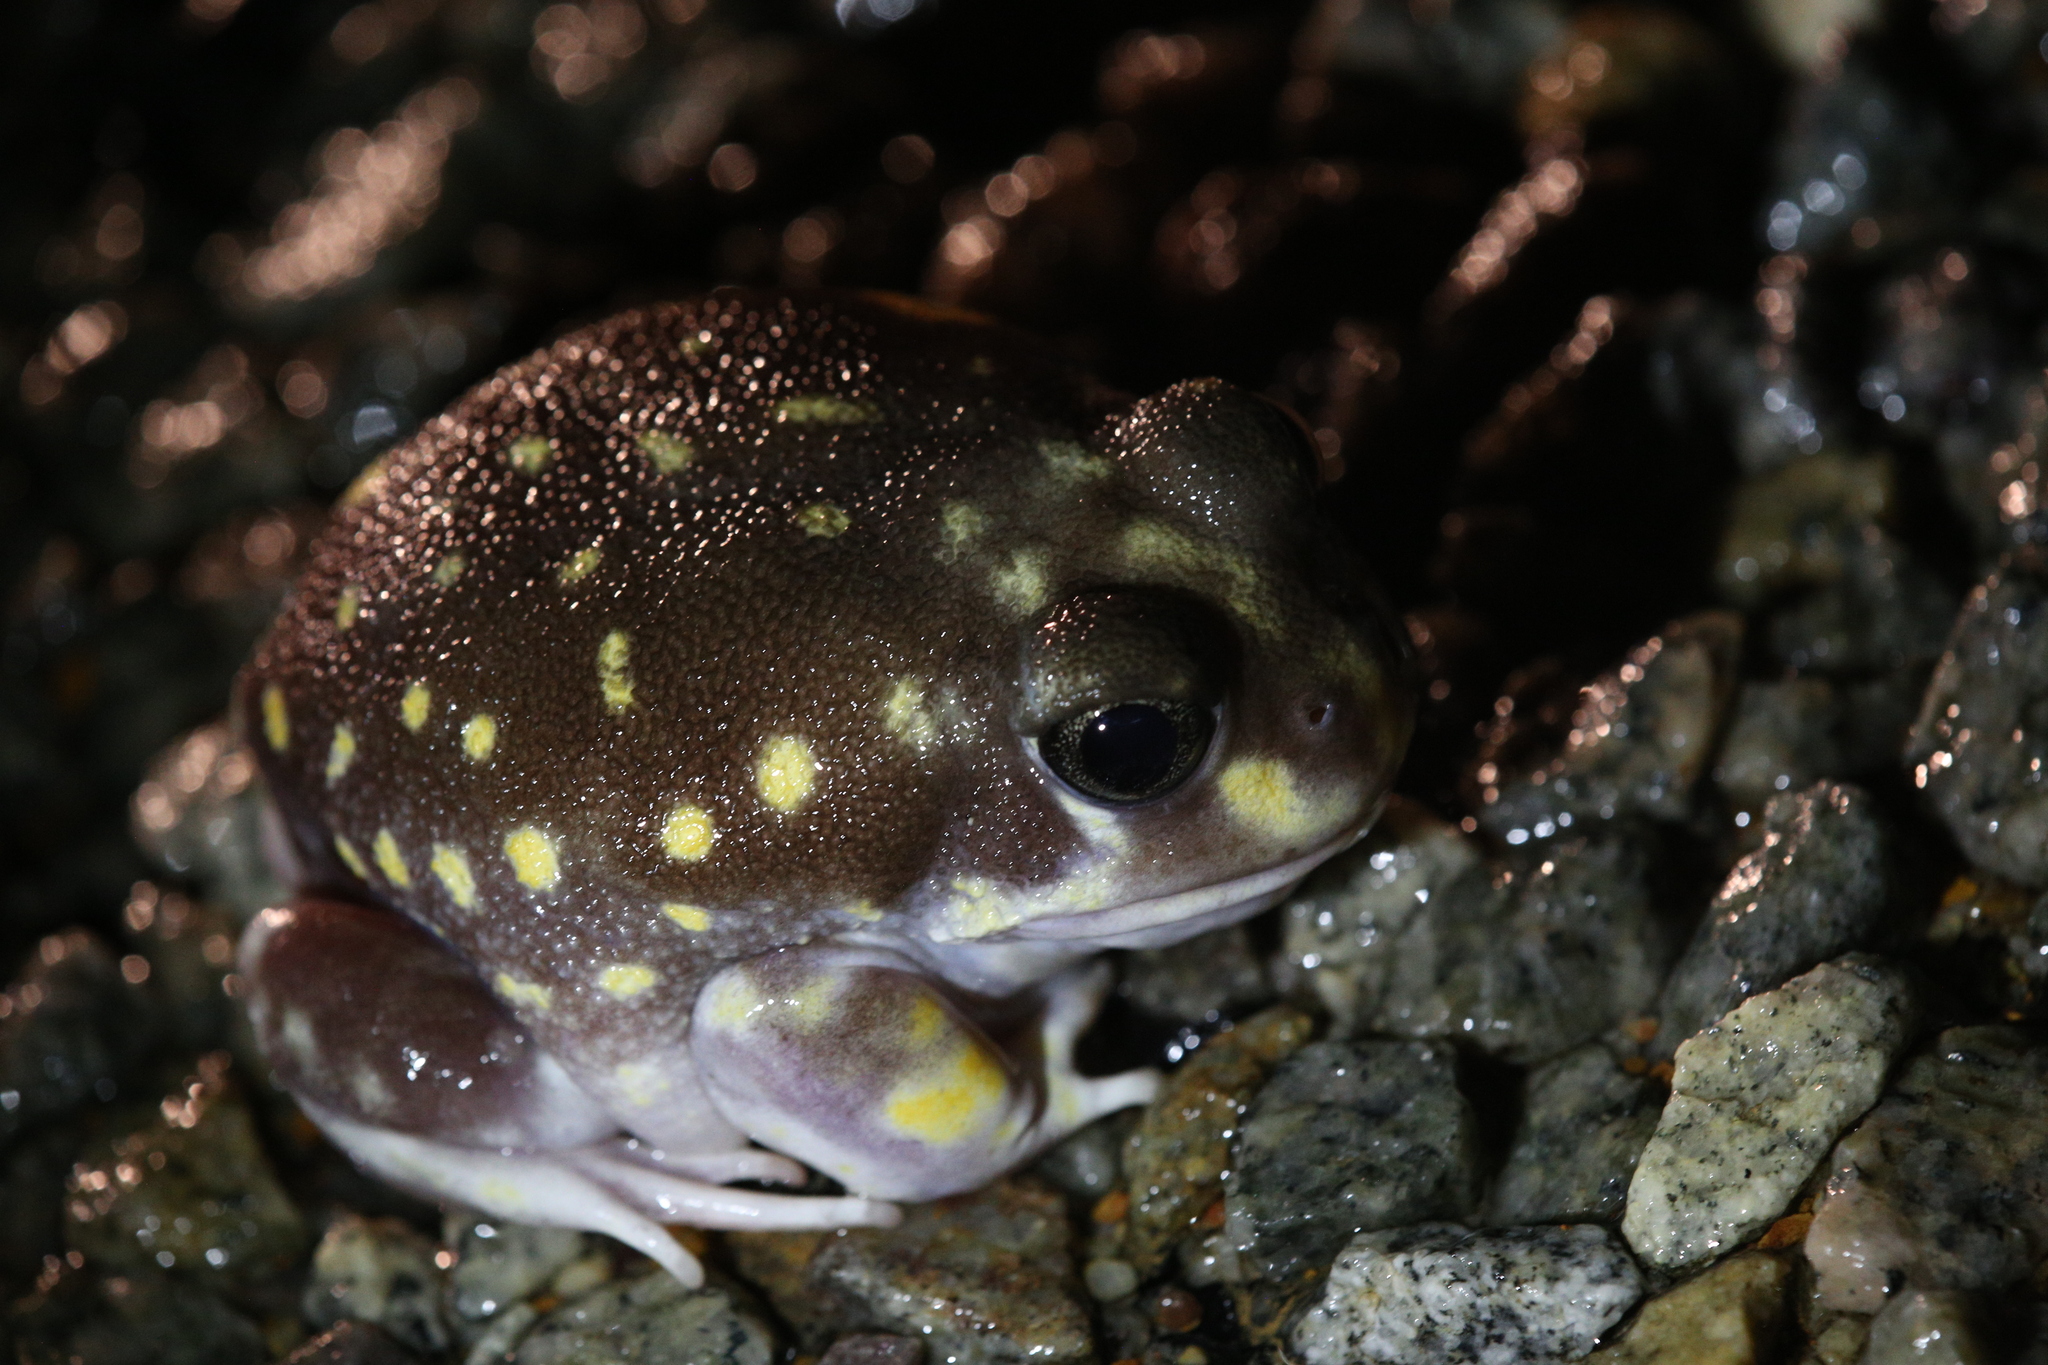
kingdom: Animalia
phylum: Chordata
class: Amphibia
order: Anura
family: Limnodynastidae
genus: Heleioporus
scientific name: Heleioporus albopunctatus
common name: Western spotted frog
